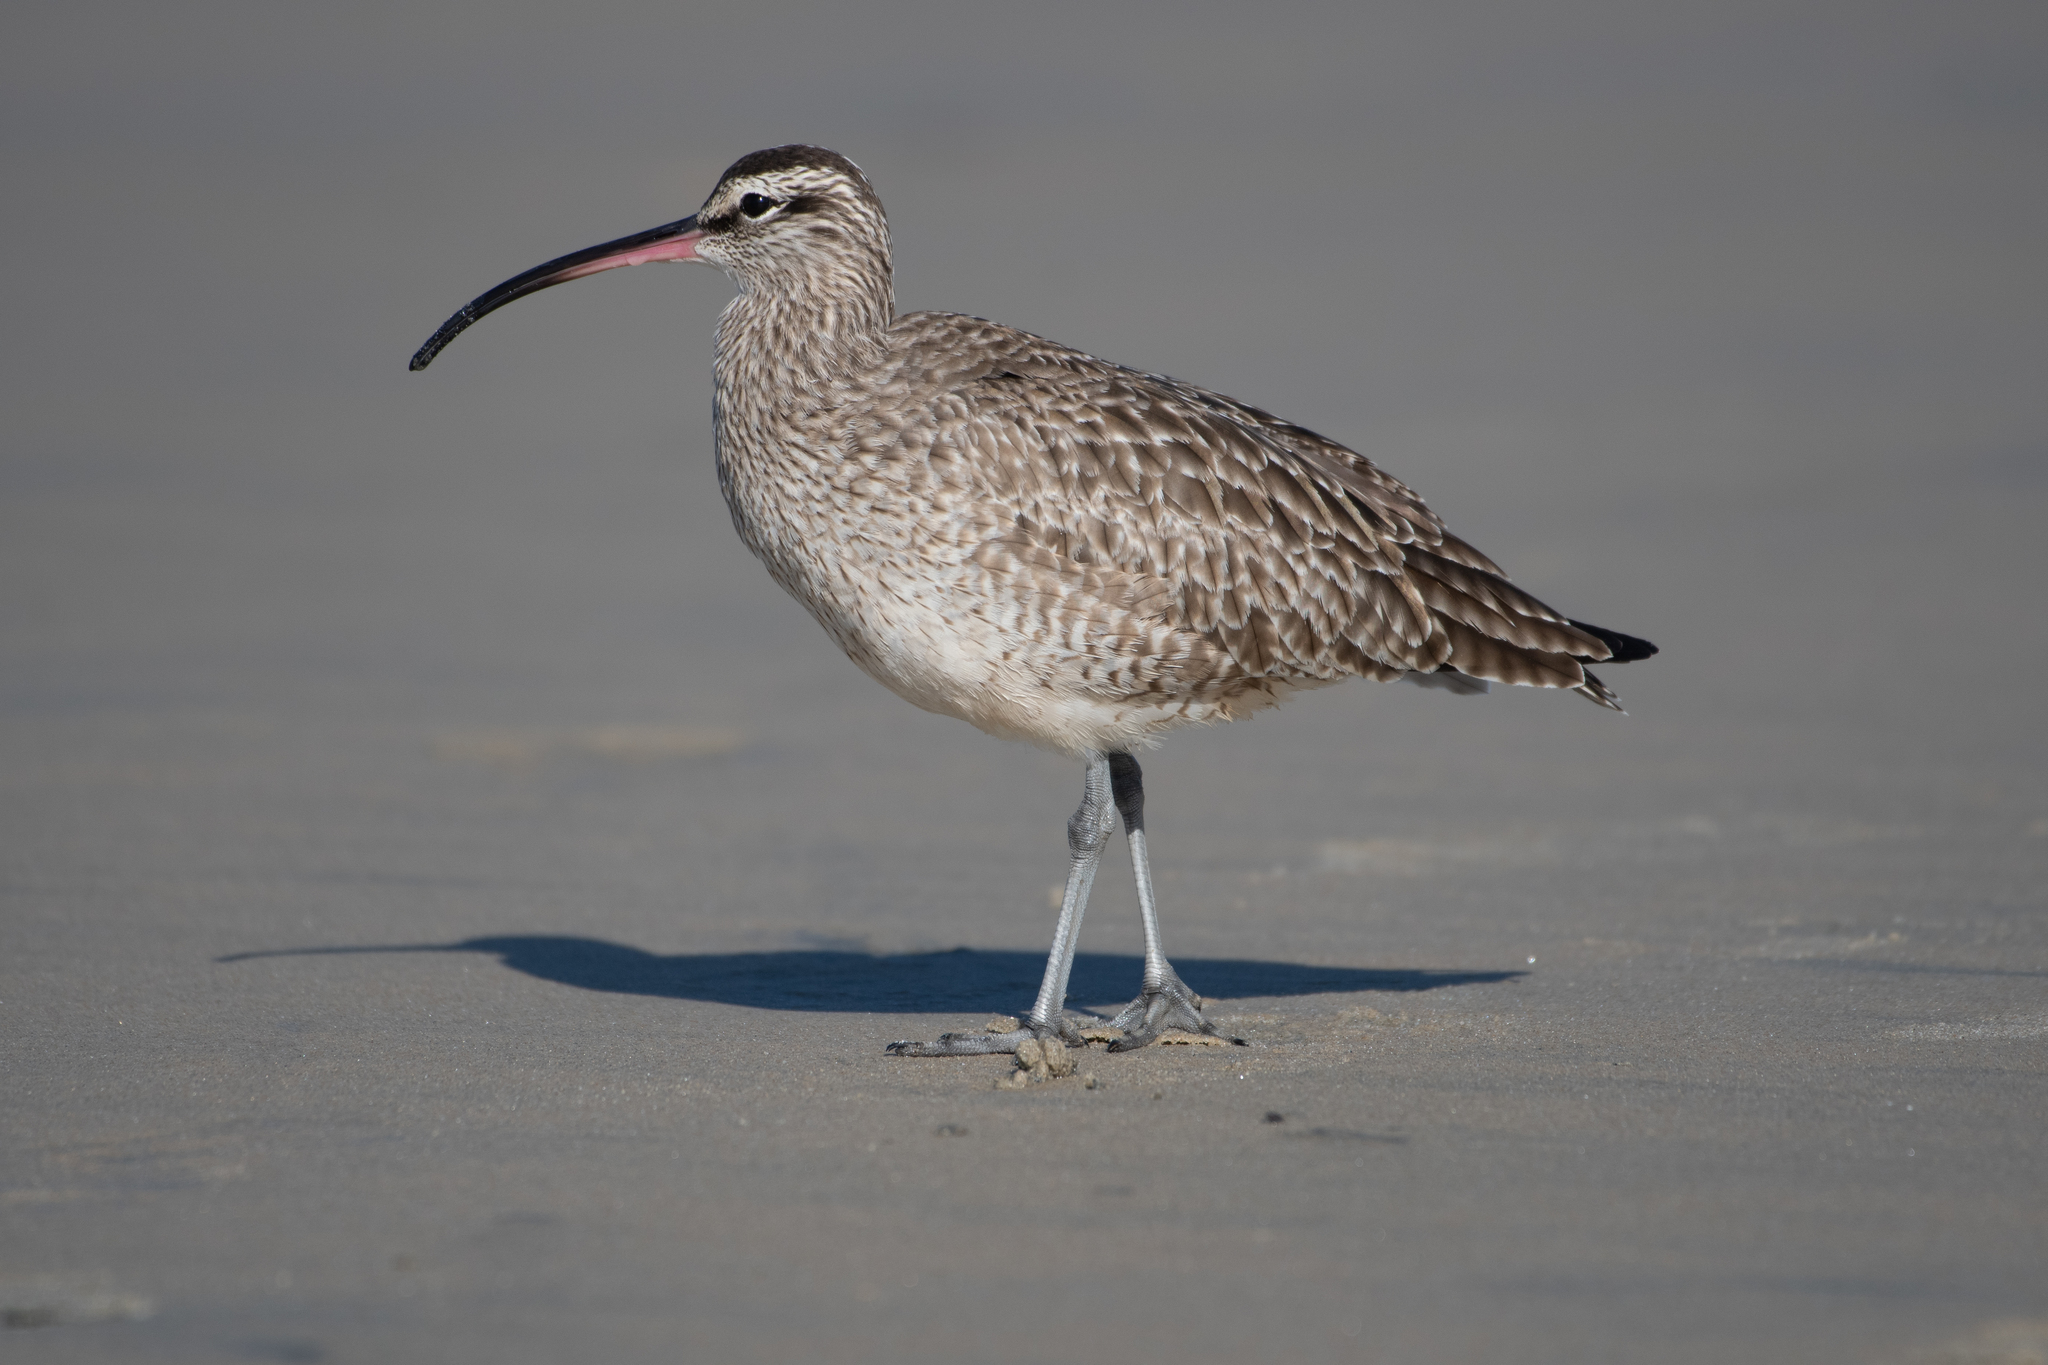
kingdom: Animalia
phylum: Chordata
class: Aves
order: Charadriiformes
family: Scolopacidae
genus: Numenius
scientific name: Numenius phaeopus
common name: Whimbrel
